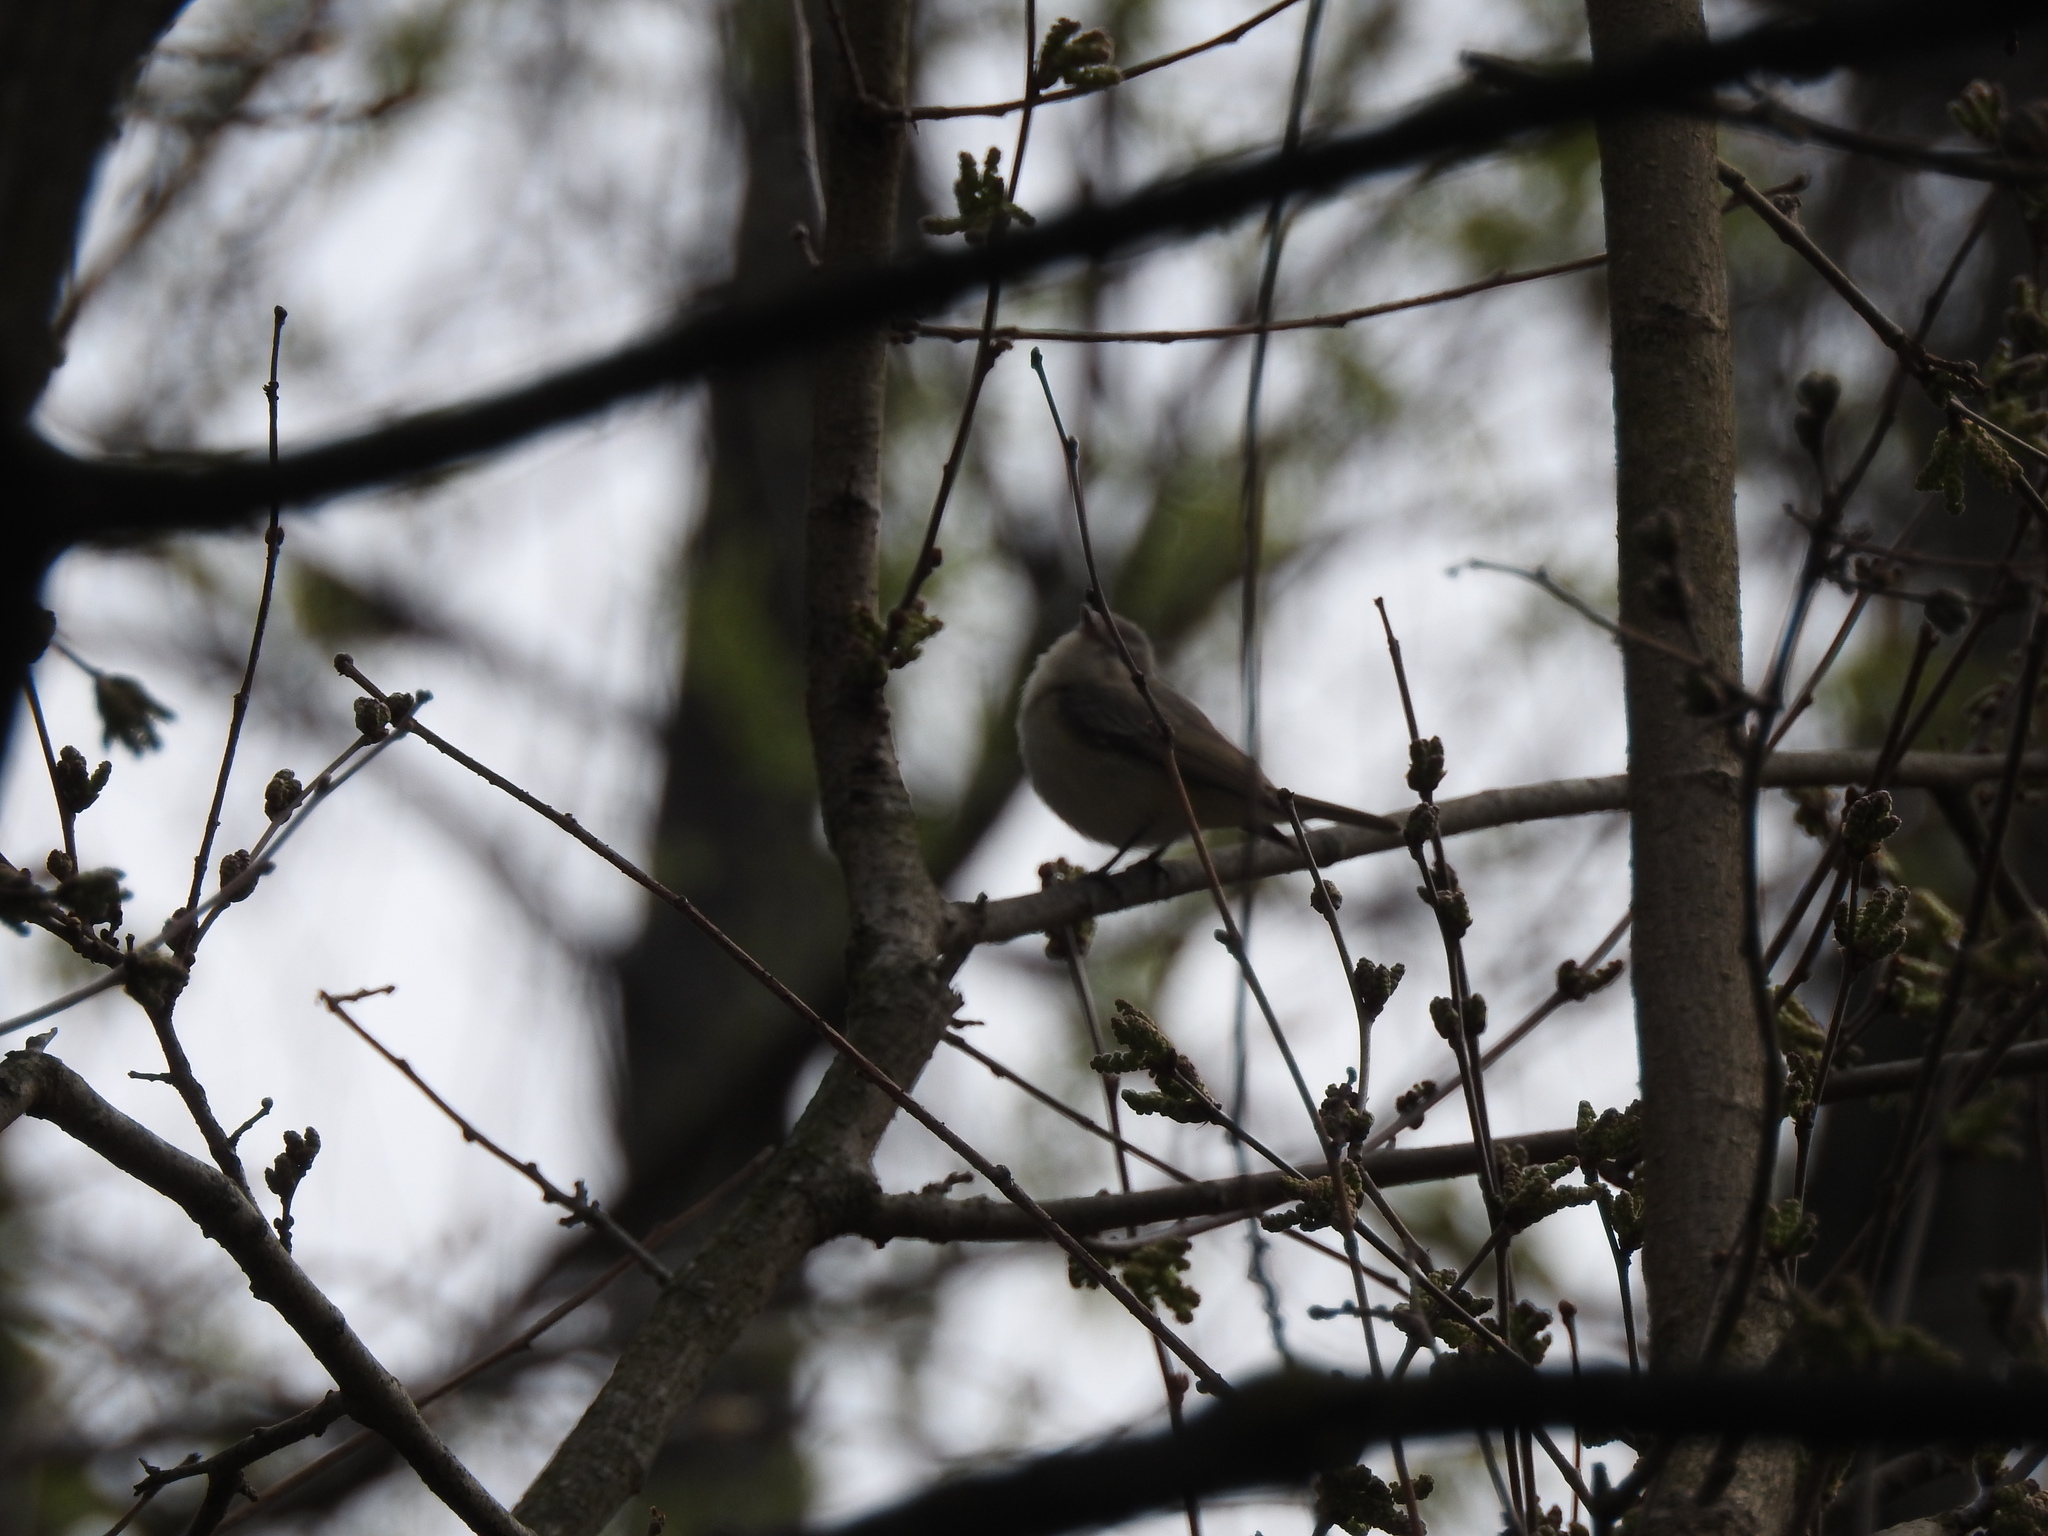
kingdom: Animalia
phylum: Chordata
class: Aves
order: Passeriformes
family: Vireonidae
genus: Vireo
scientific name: Vireo gilvus
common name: Warbling vireo
